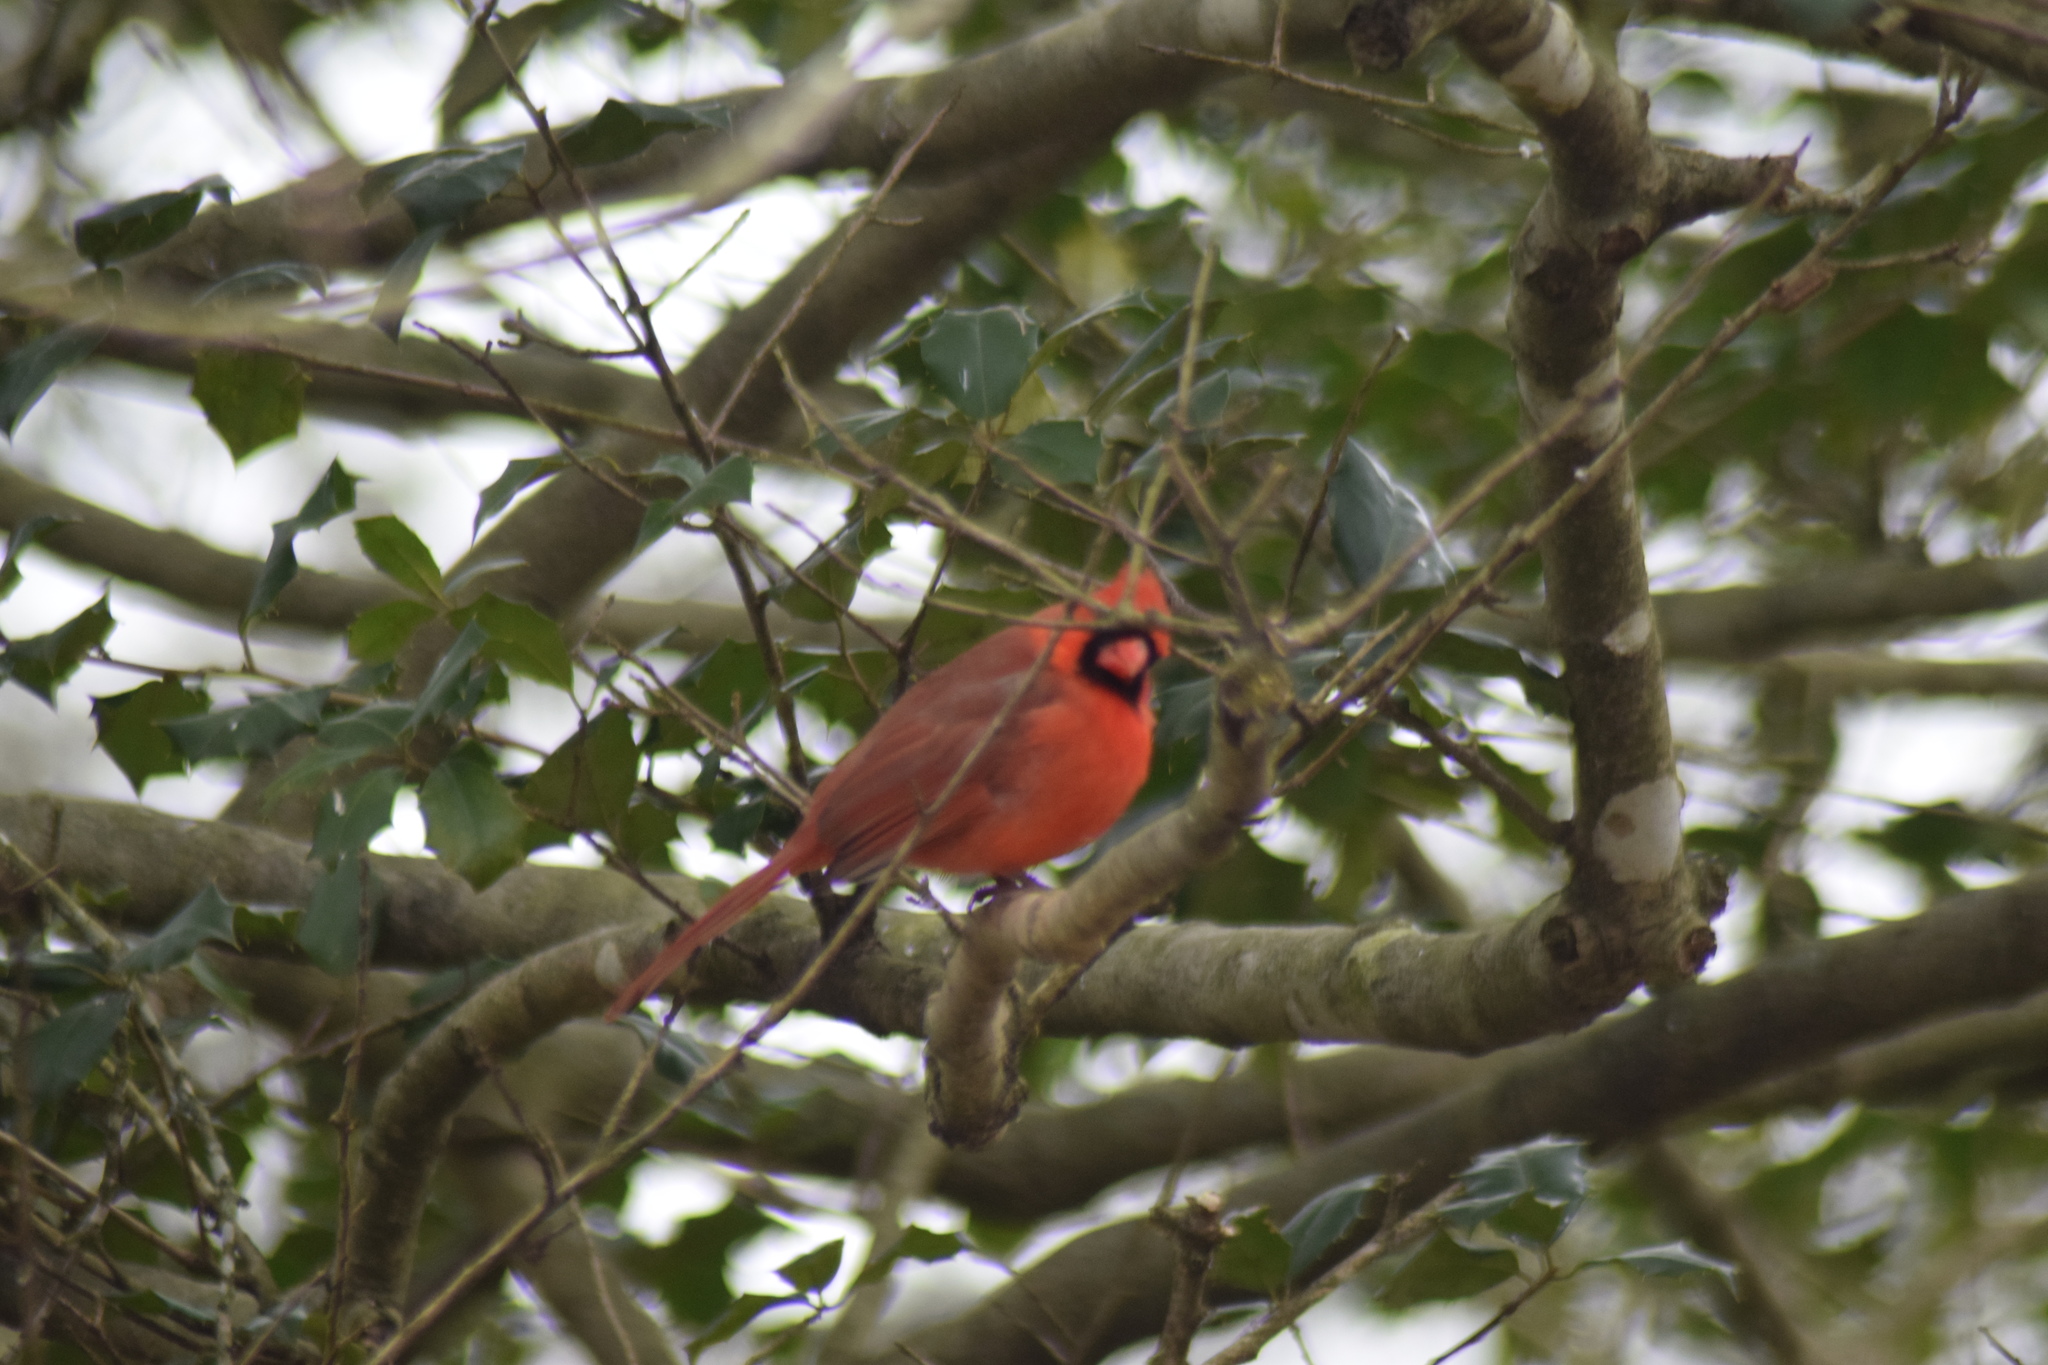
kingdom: Animalia
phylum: Chordata
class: Aves
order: Passeriformes
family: Cardinalidae
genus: Cardinalis
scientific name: Cardinalis cardinalis
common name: Northern cardinal
